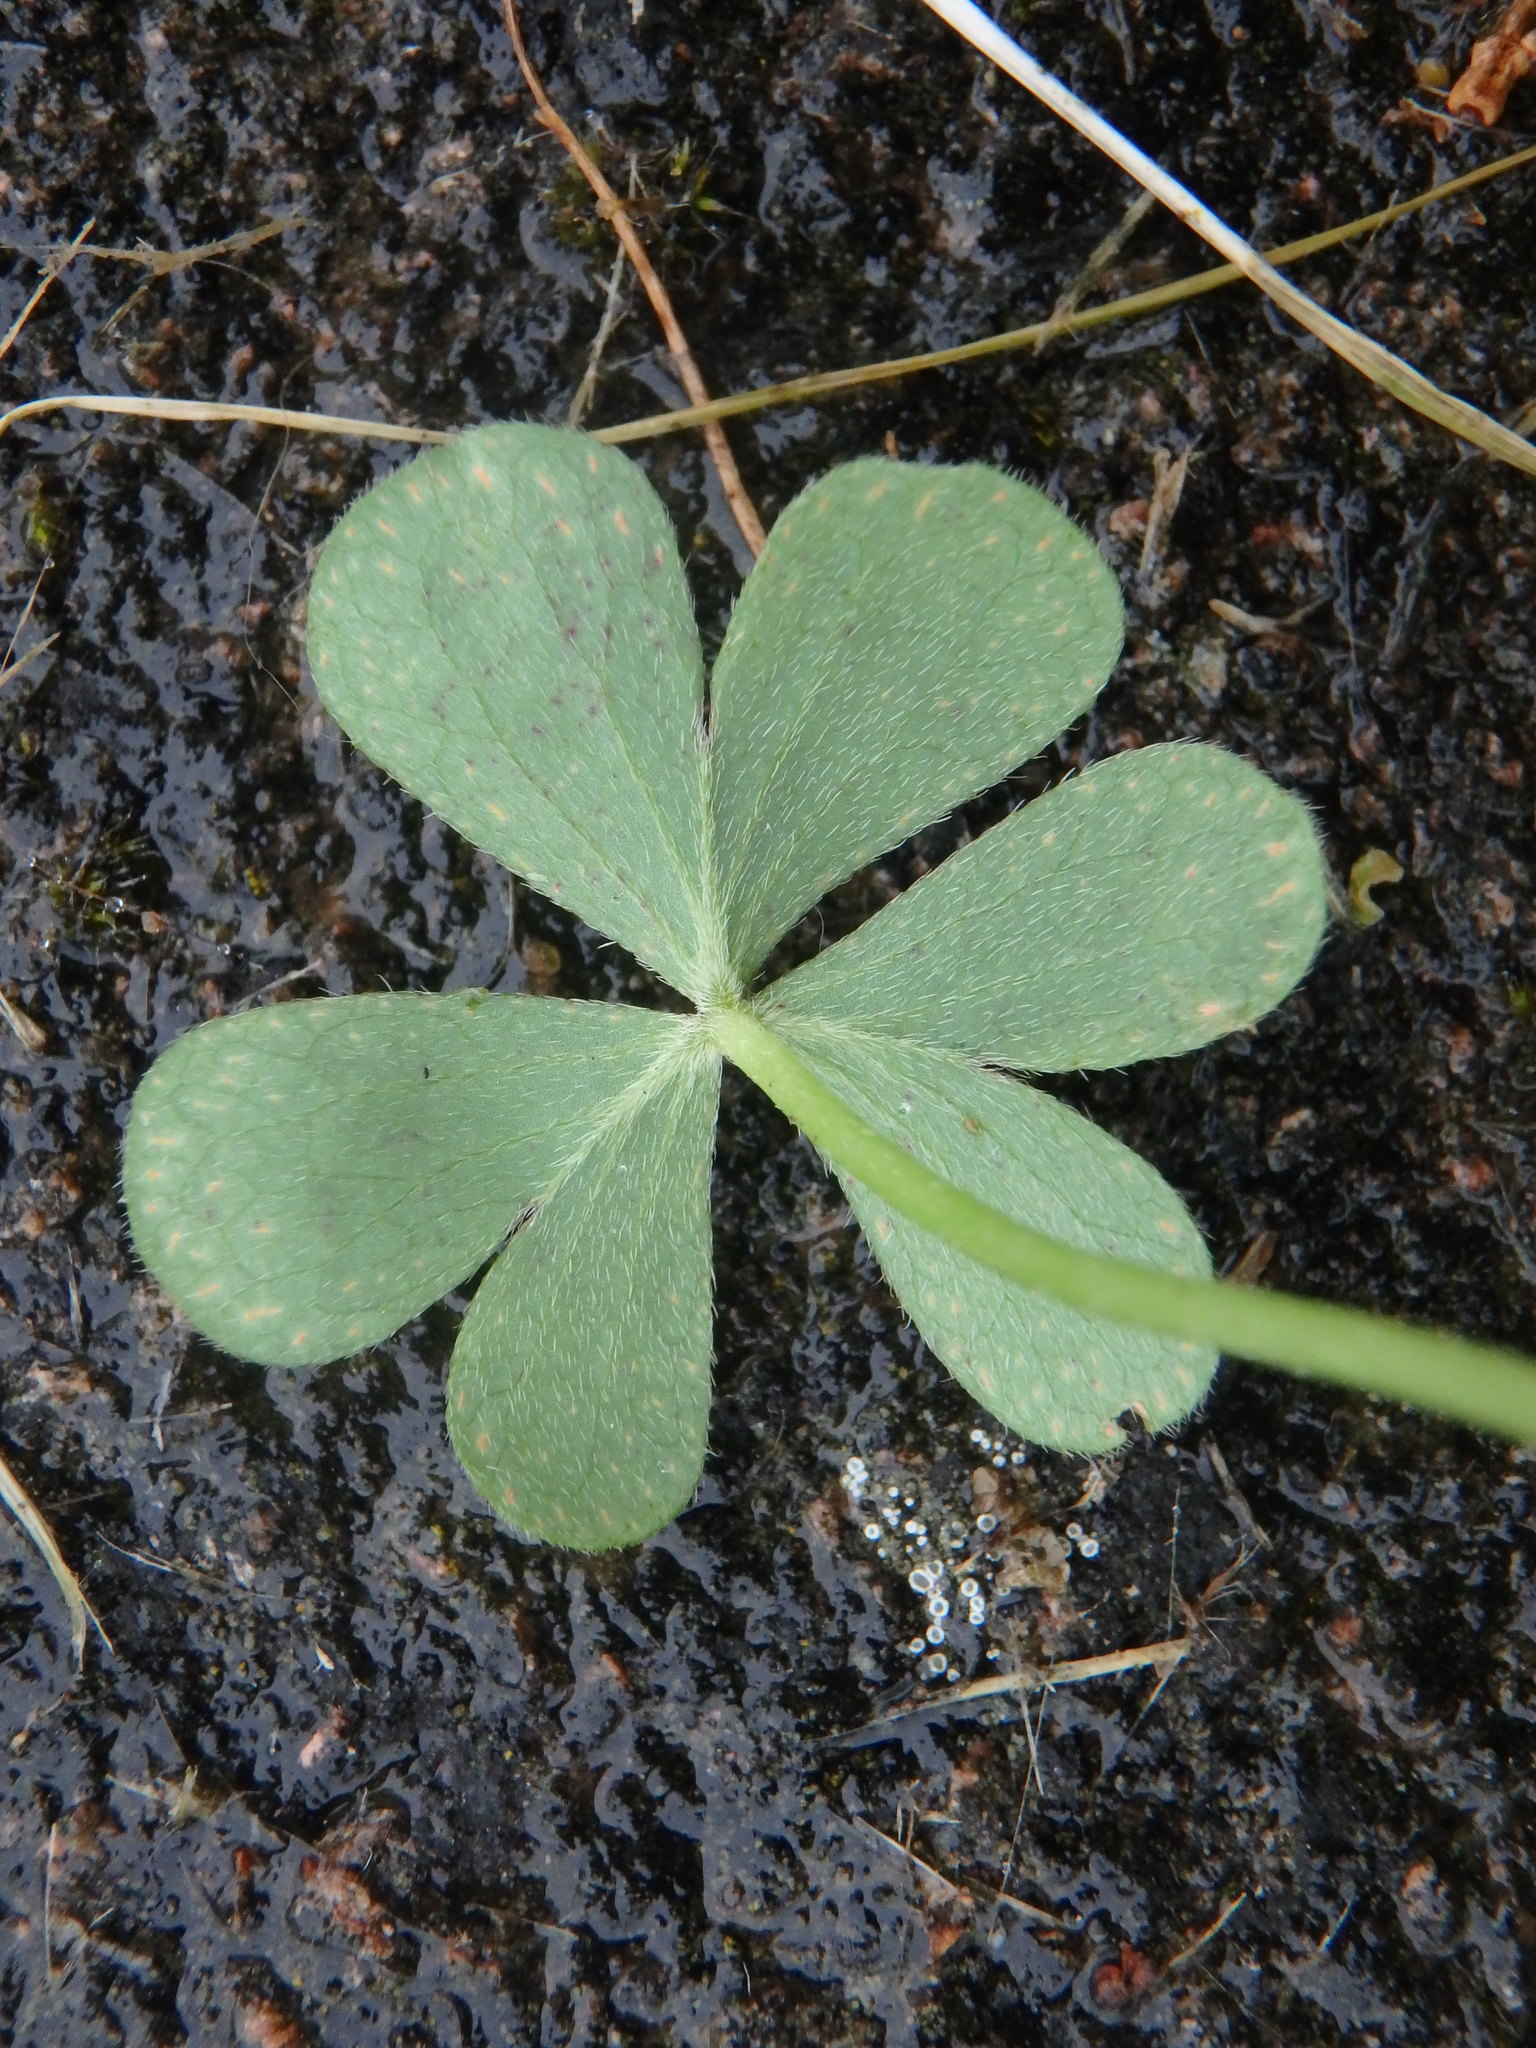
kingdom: Plantae
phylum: Tracheophyta
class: Magnoliopsida
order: Oxalidales
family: Oxalidaceae
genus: Oxalis
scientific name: Oxalis articulata
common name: Pink-sorrel
